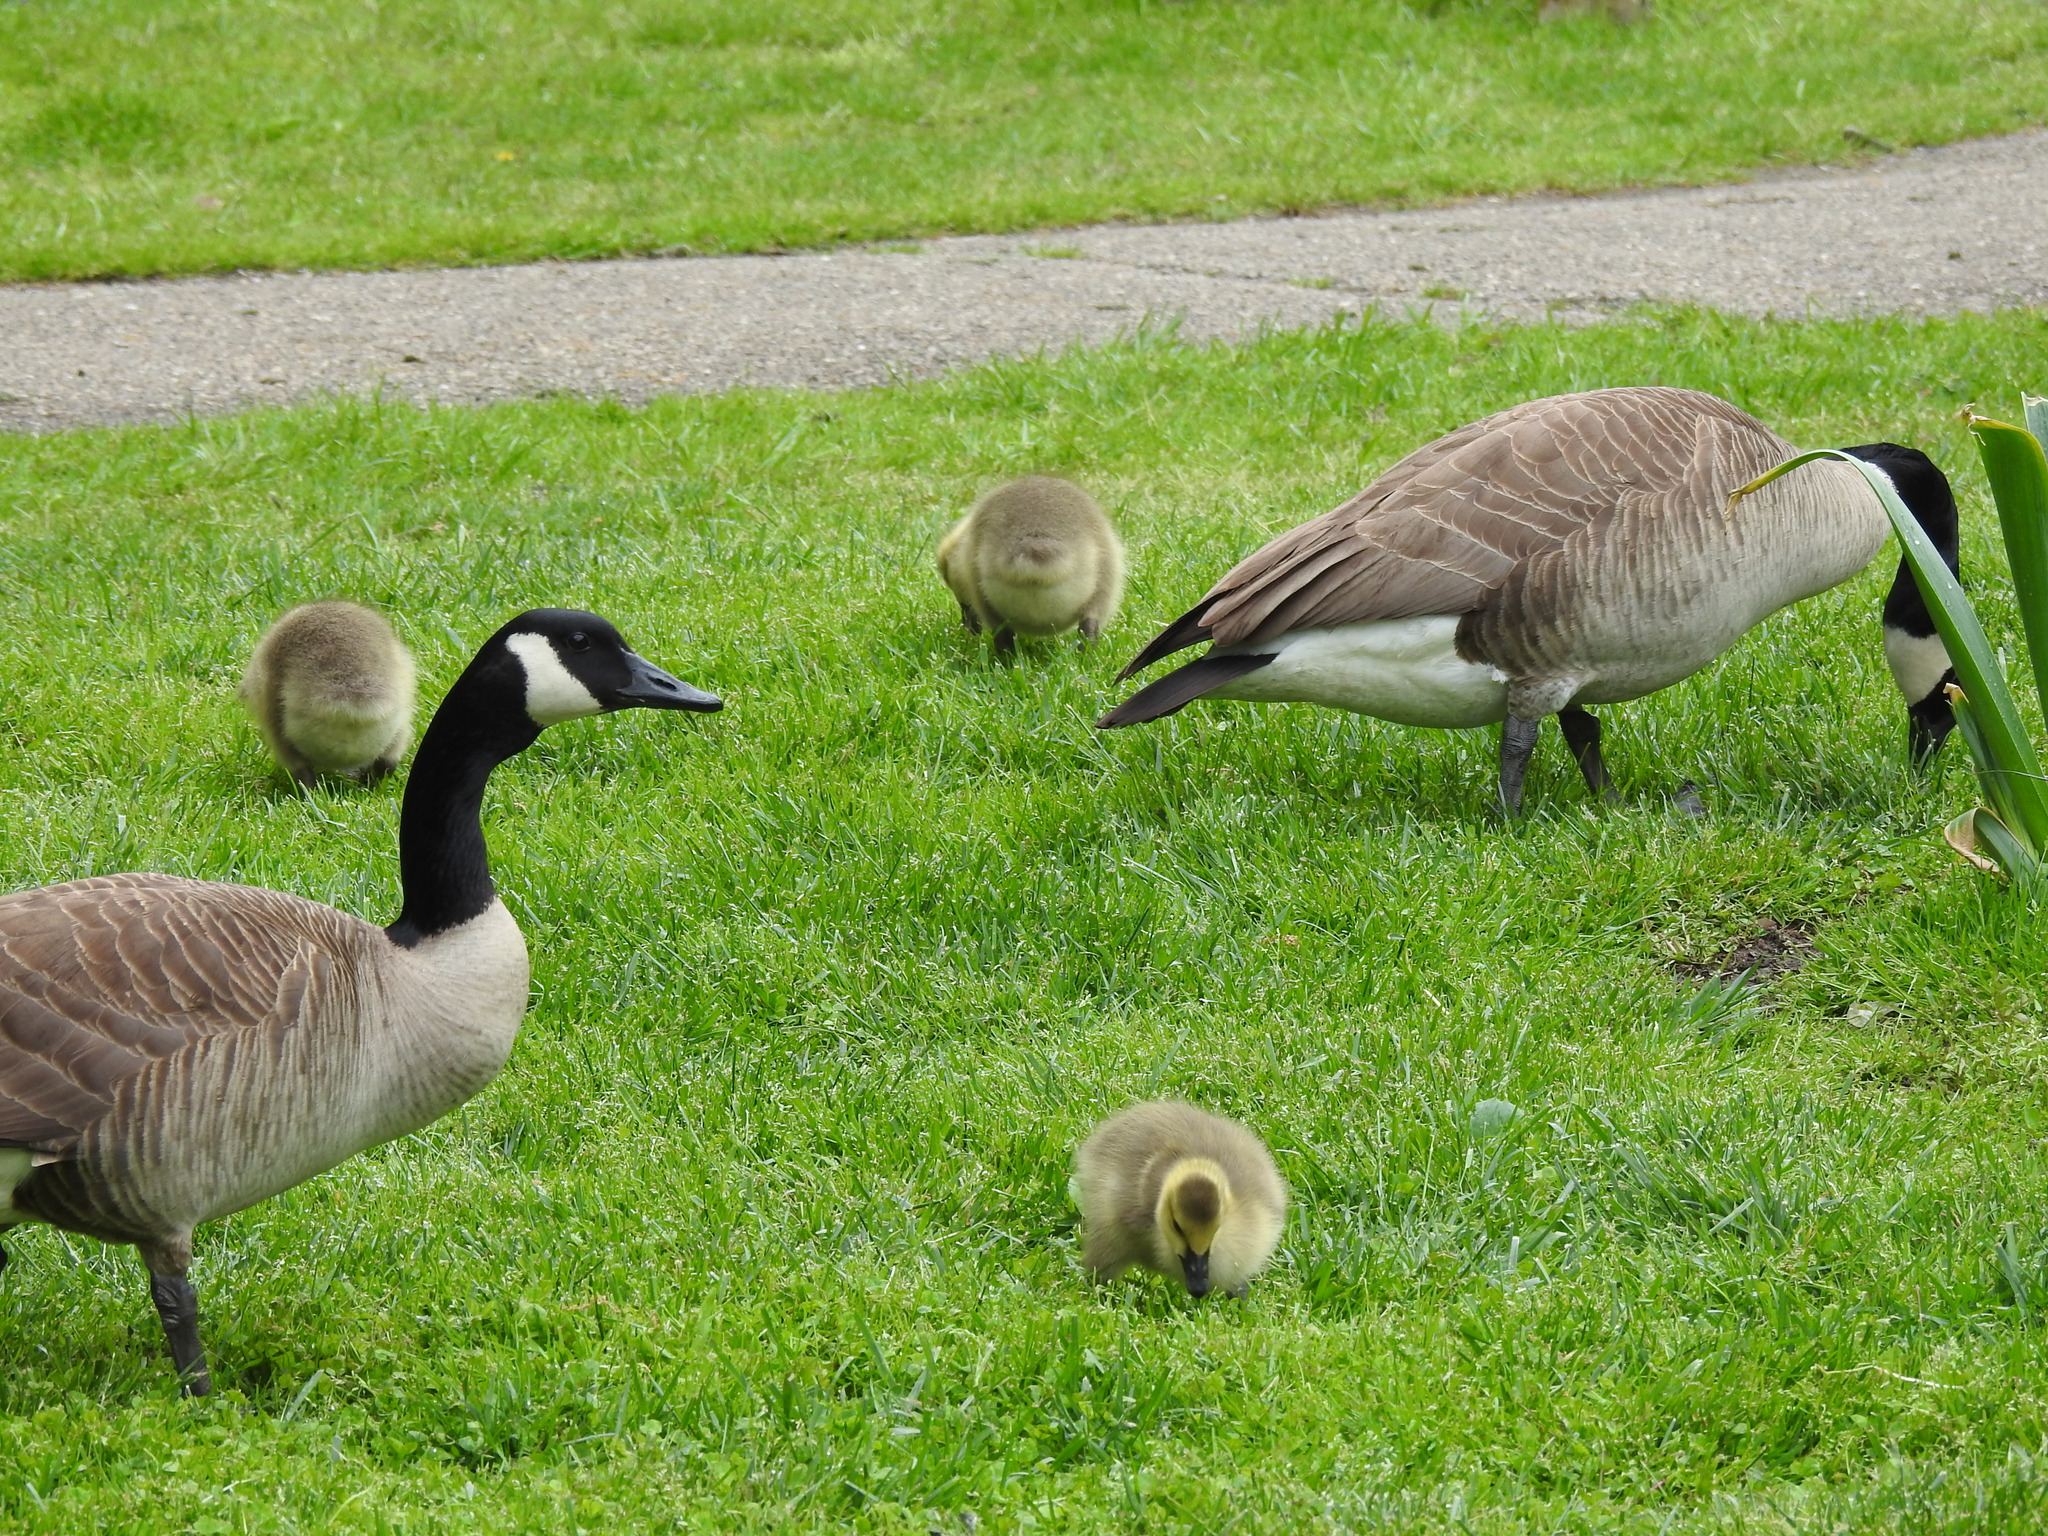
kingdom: Animalia
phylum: Chordata
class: Aves
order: Anseriformes
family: Anatidae
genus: Branta
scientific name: Branta canadensis
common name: Canada goose
